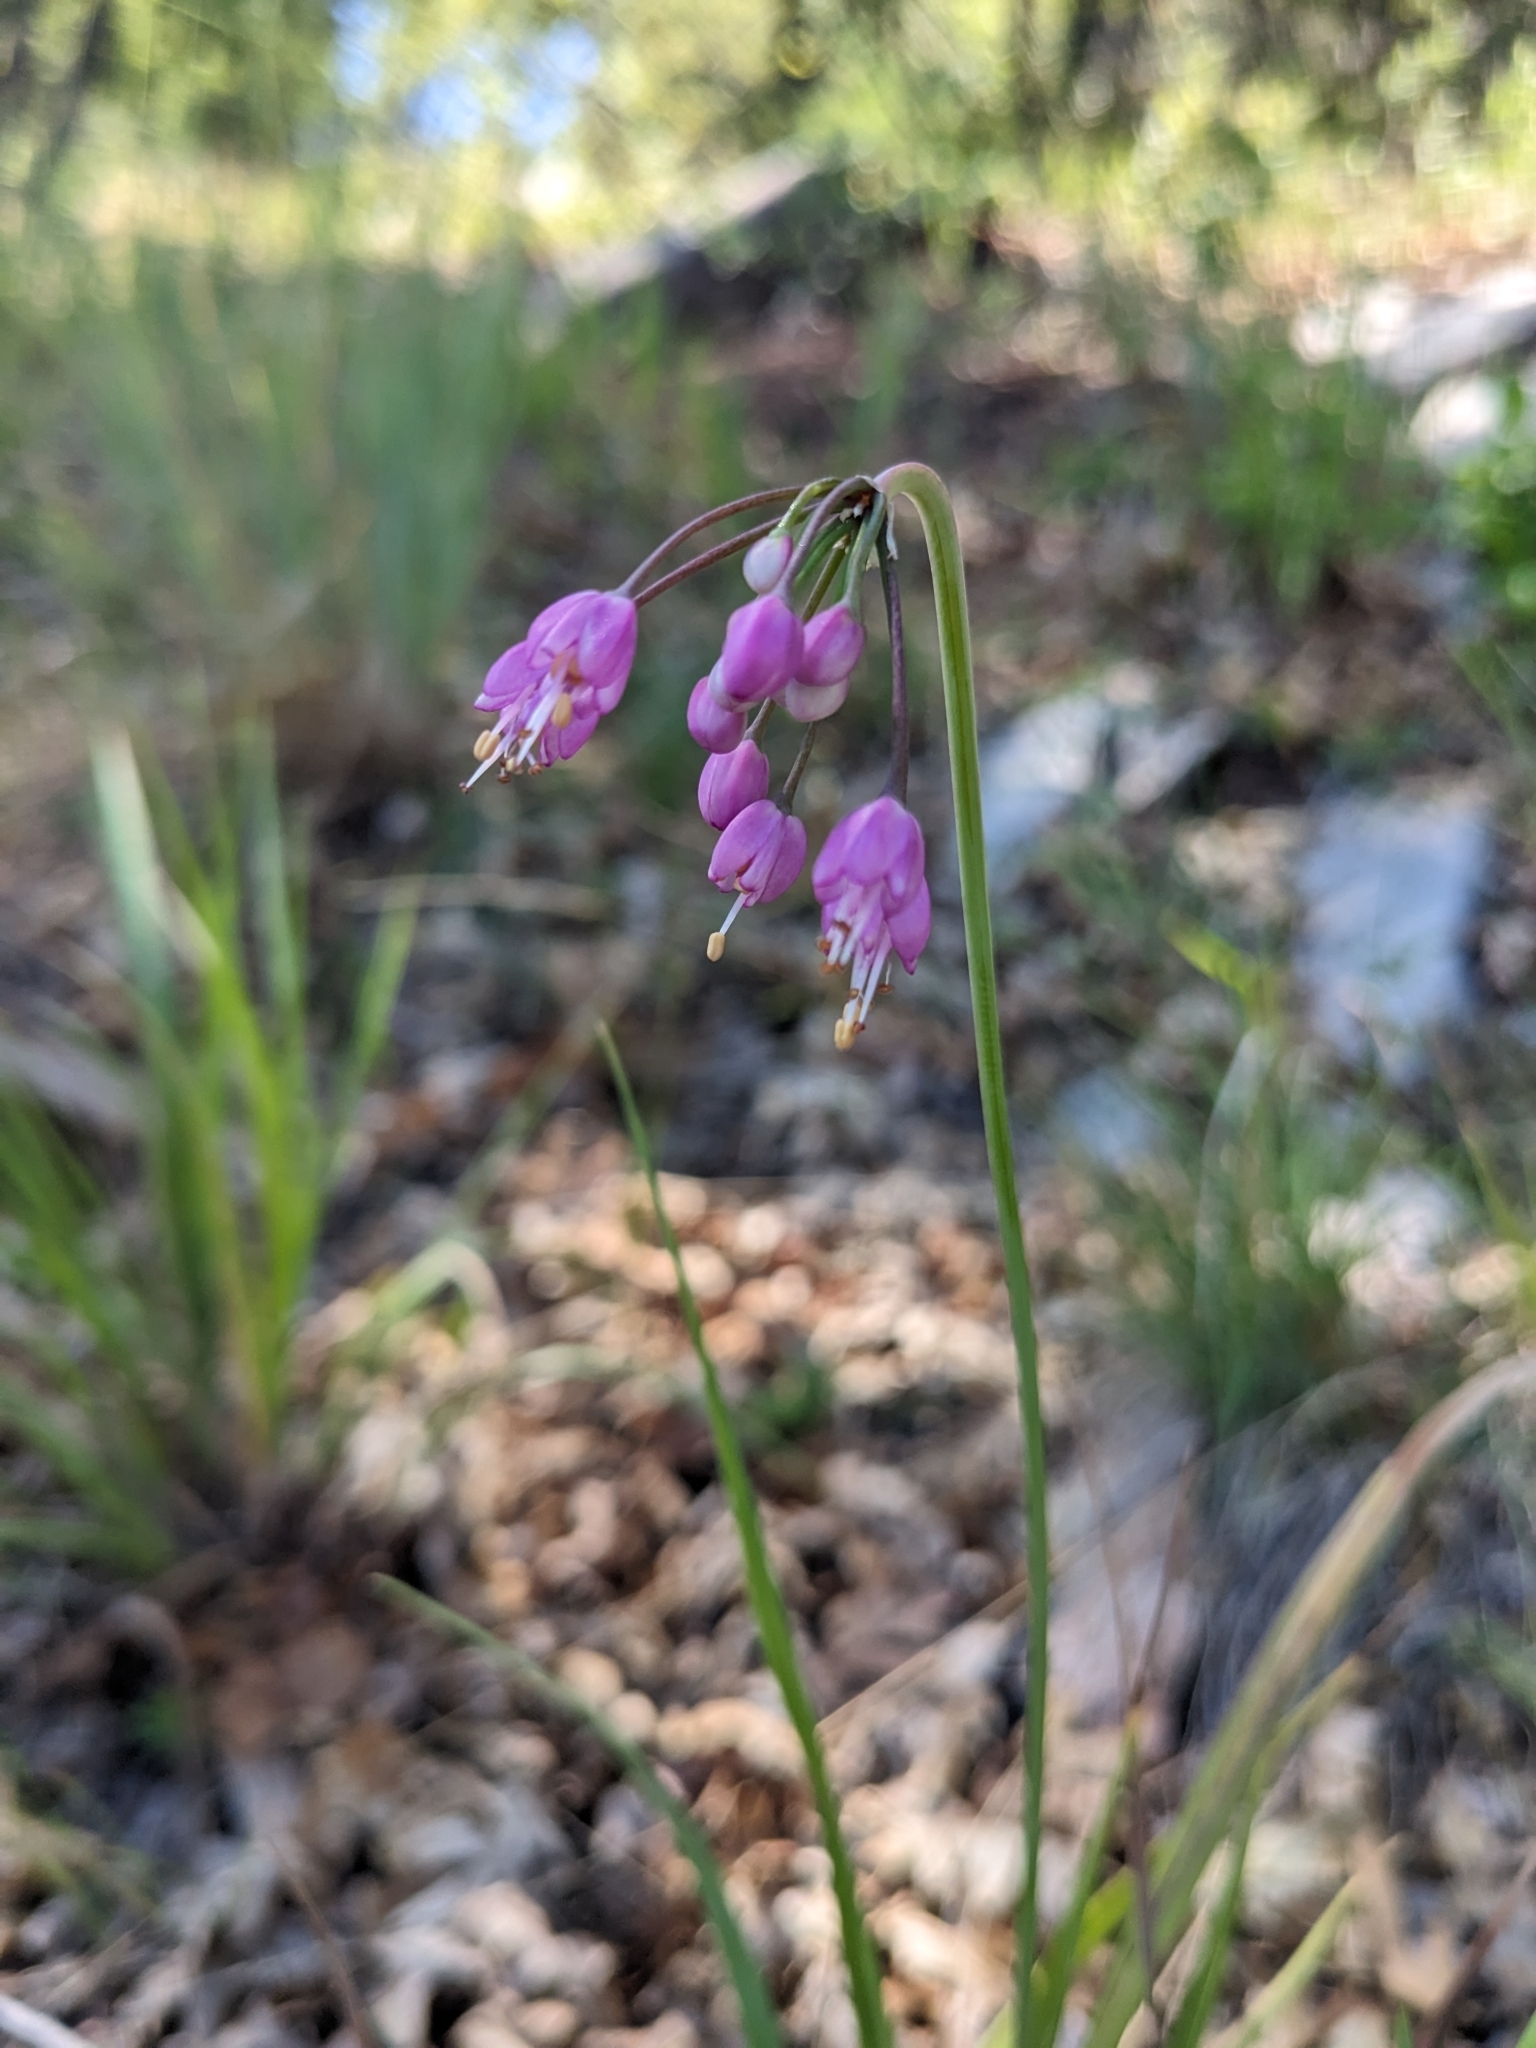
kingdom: Plantae
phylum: Tracheophyta
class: Liliopsida
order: Asparagales
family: Amaryllidaceae
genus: Allium
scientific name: Allium cernuum
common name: Nodding onion
